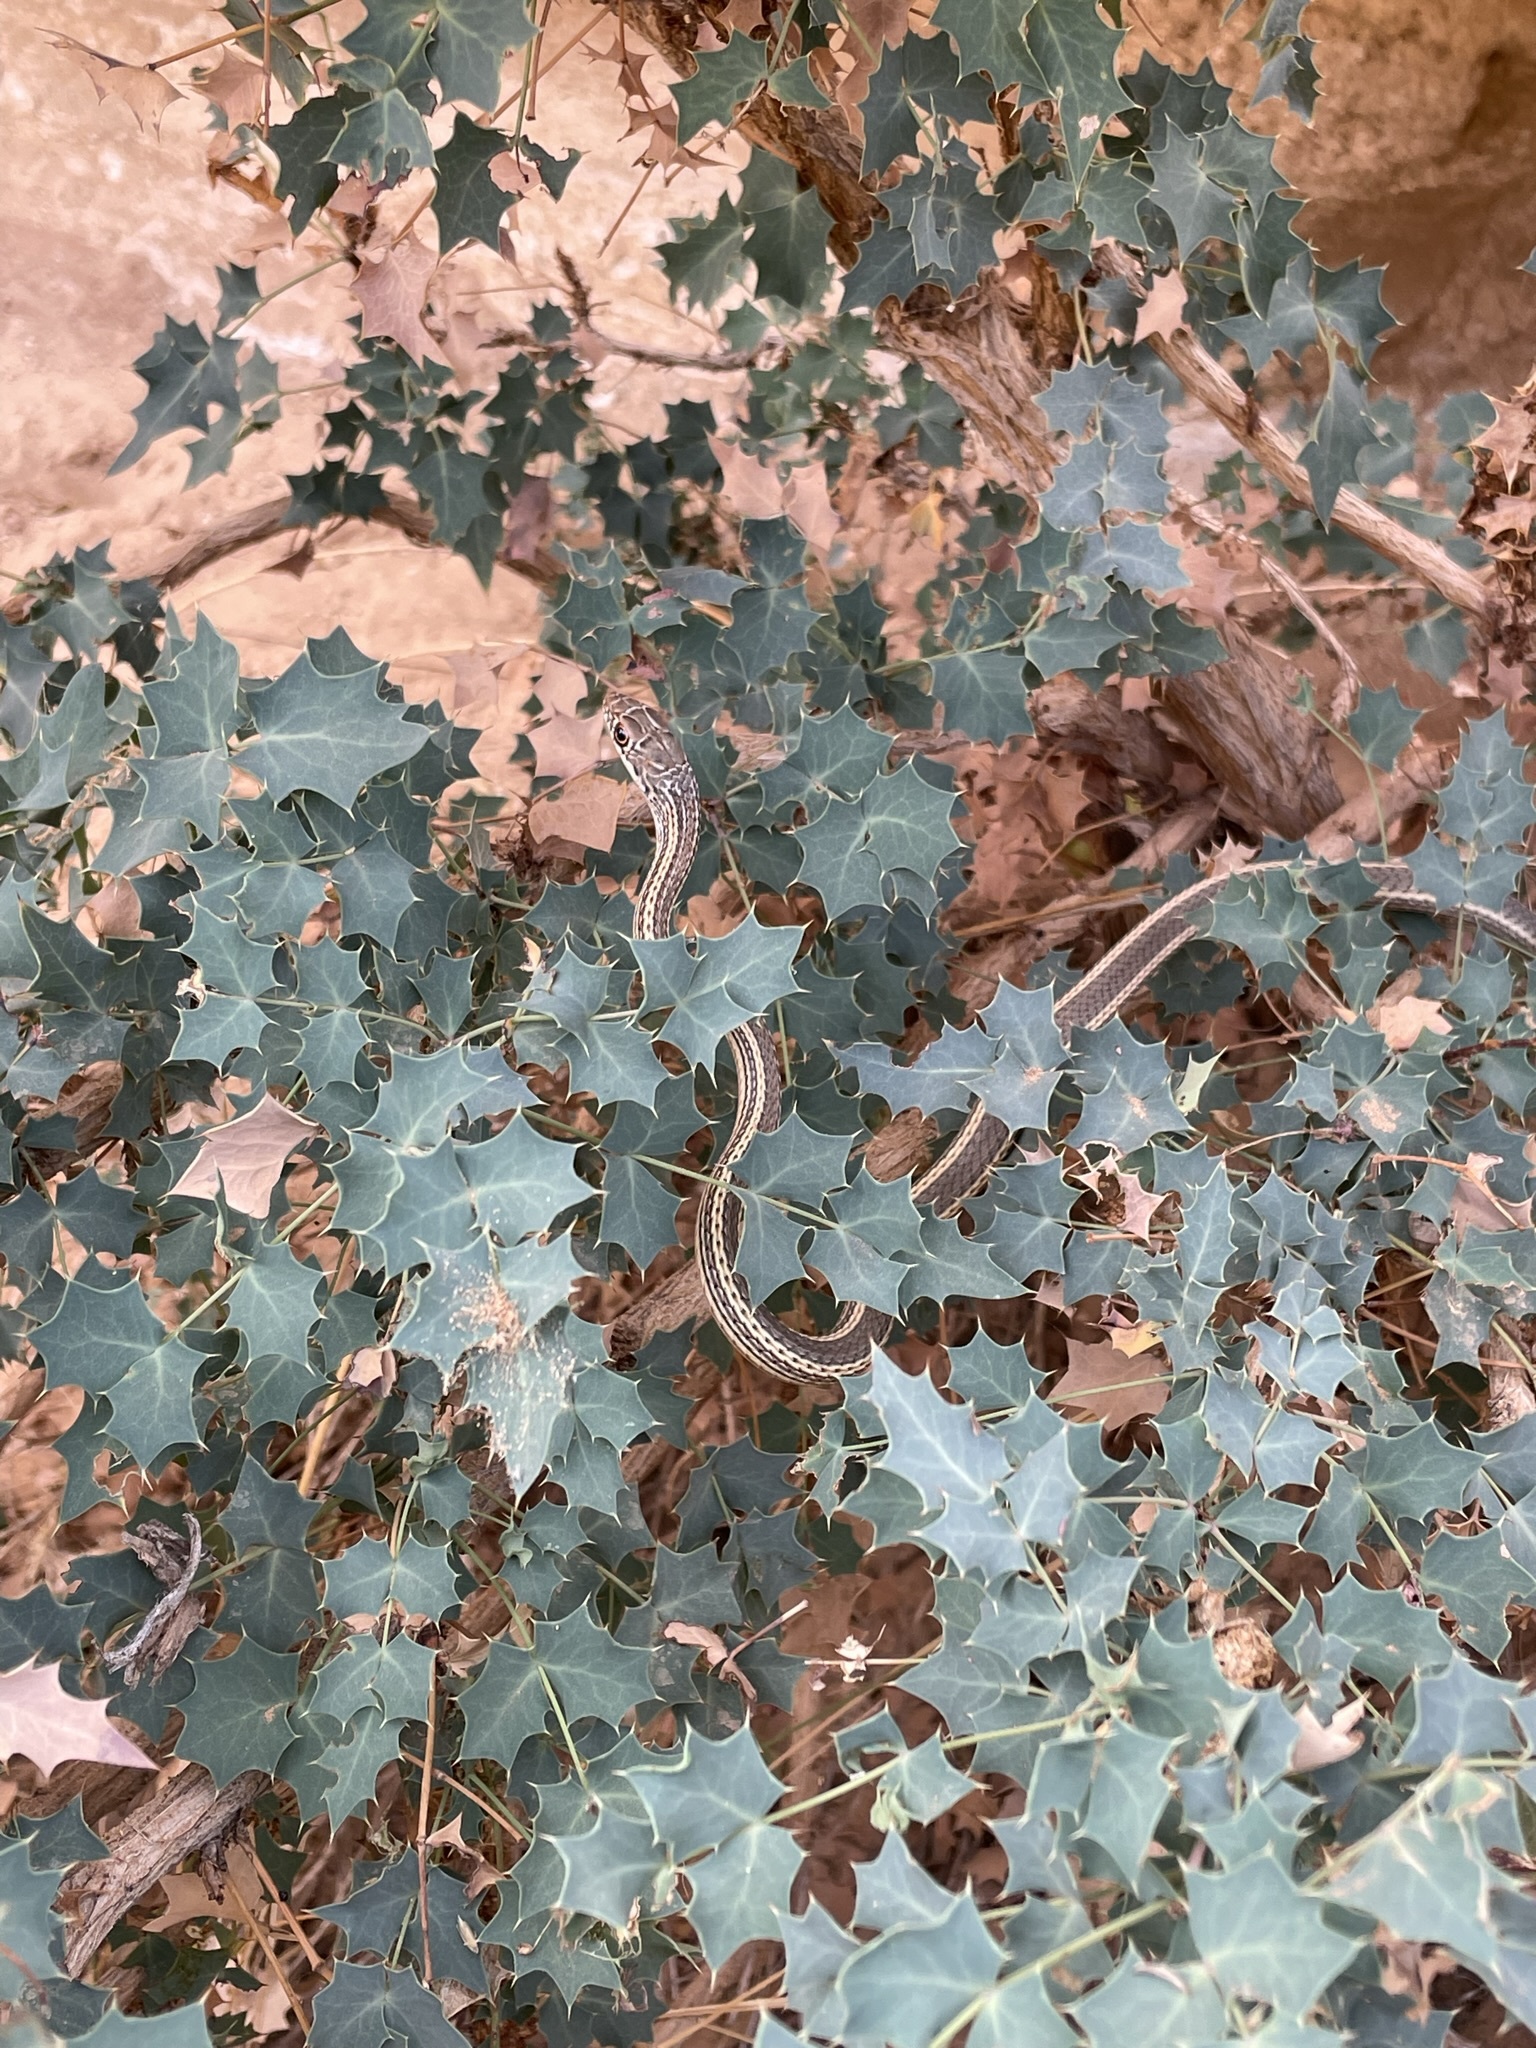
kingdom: Animalia
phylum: Chordata
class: Squamata
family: Colubridae
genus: Masticophis
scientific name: Masticophis taeniatus
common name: Striped whipsnake
